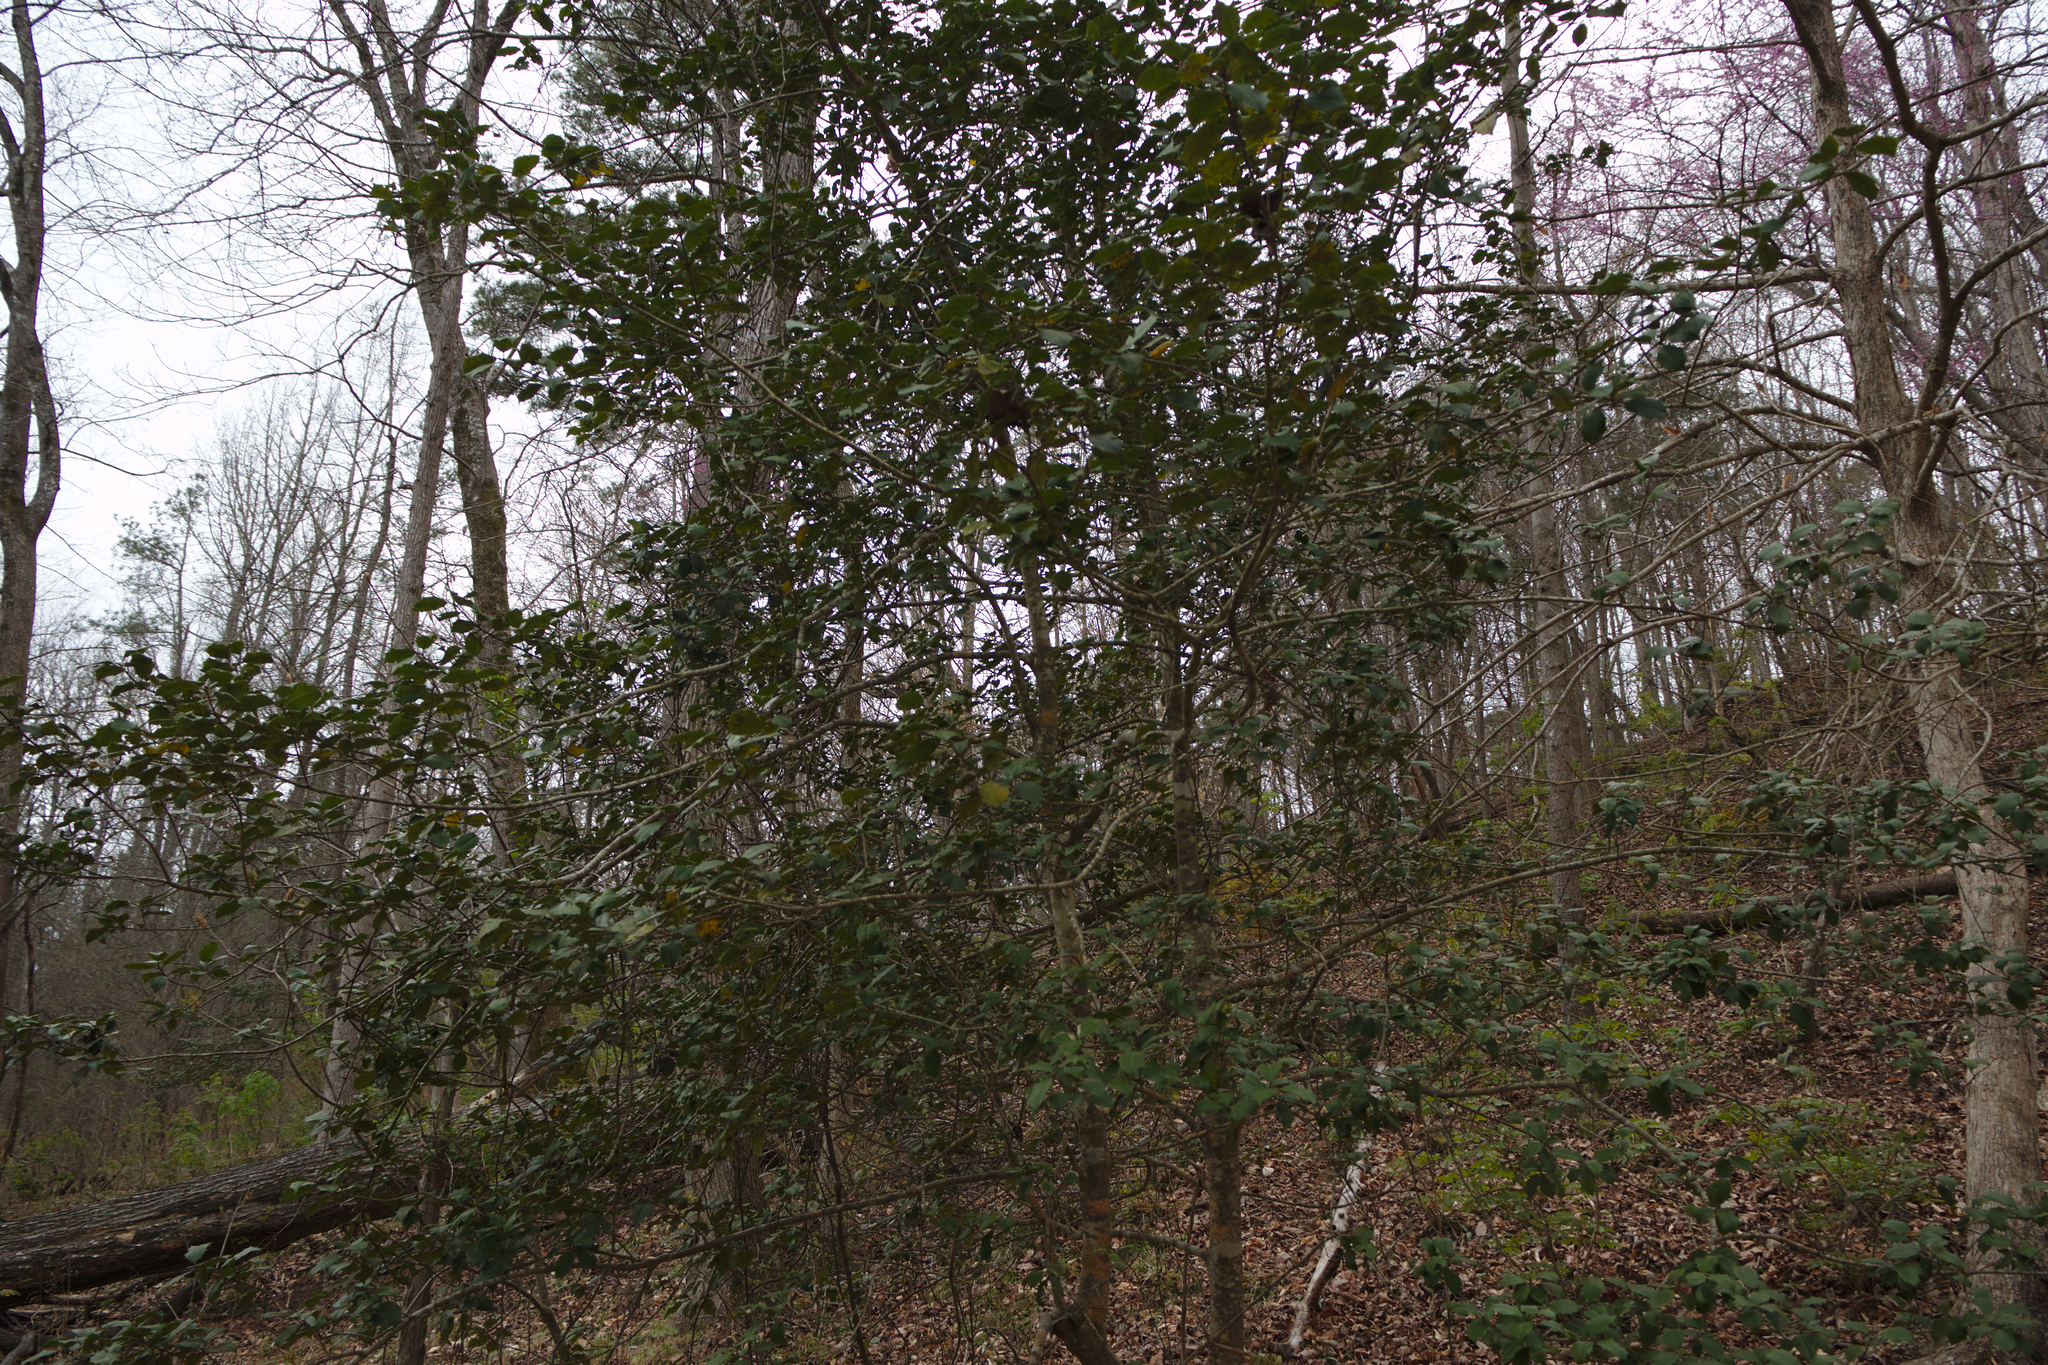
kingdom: Plantae
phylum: Tracheophyta
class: Magnoliopsida
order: Aquifoliales
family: Aquifoliaceae
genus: Ilex
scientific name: Ilex opaca
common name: American holly
